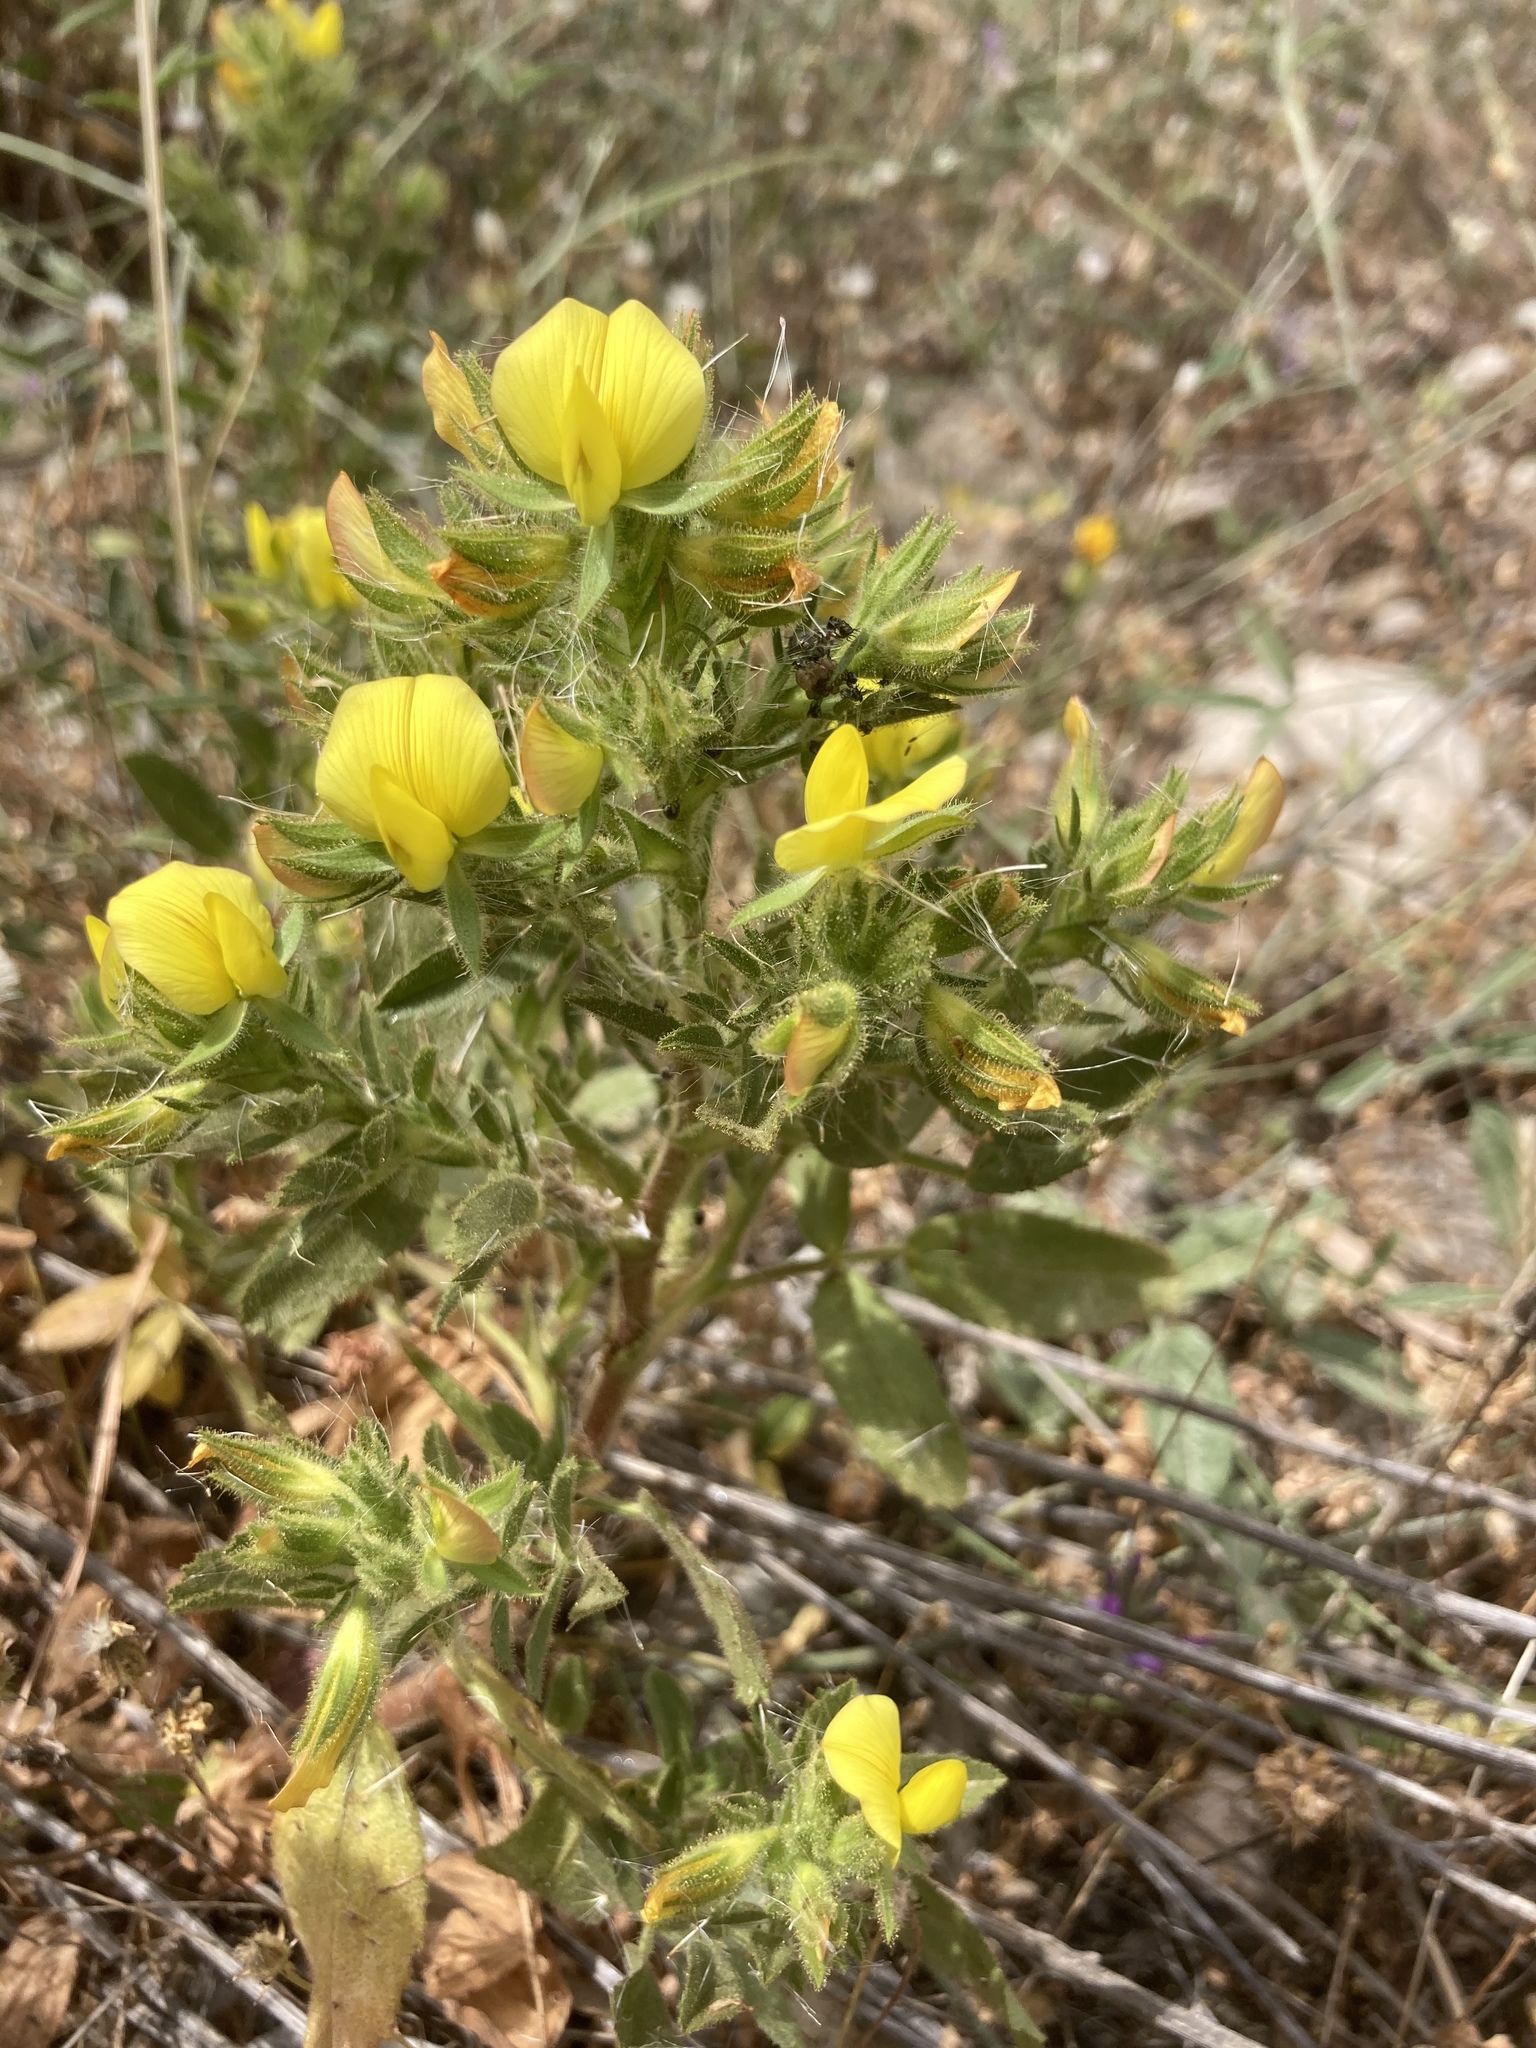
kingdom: Plantae
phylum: Tracheophyta
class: Magnoliopsida
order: Fabales
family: Fabaceae
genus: Ononis
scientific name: Ononis pubescens
